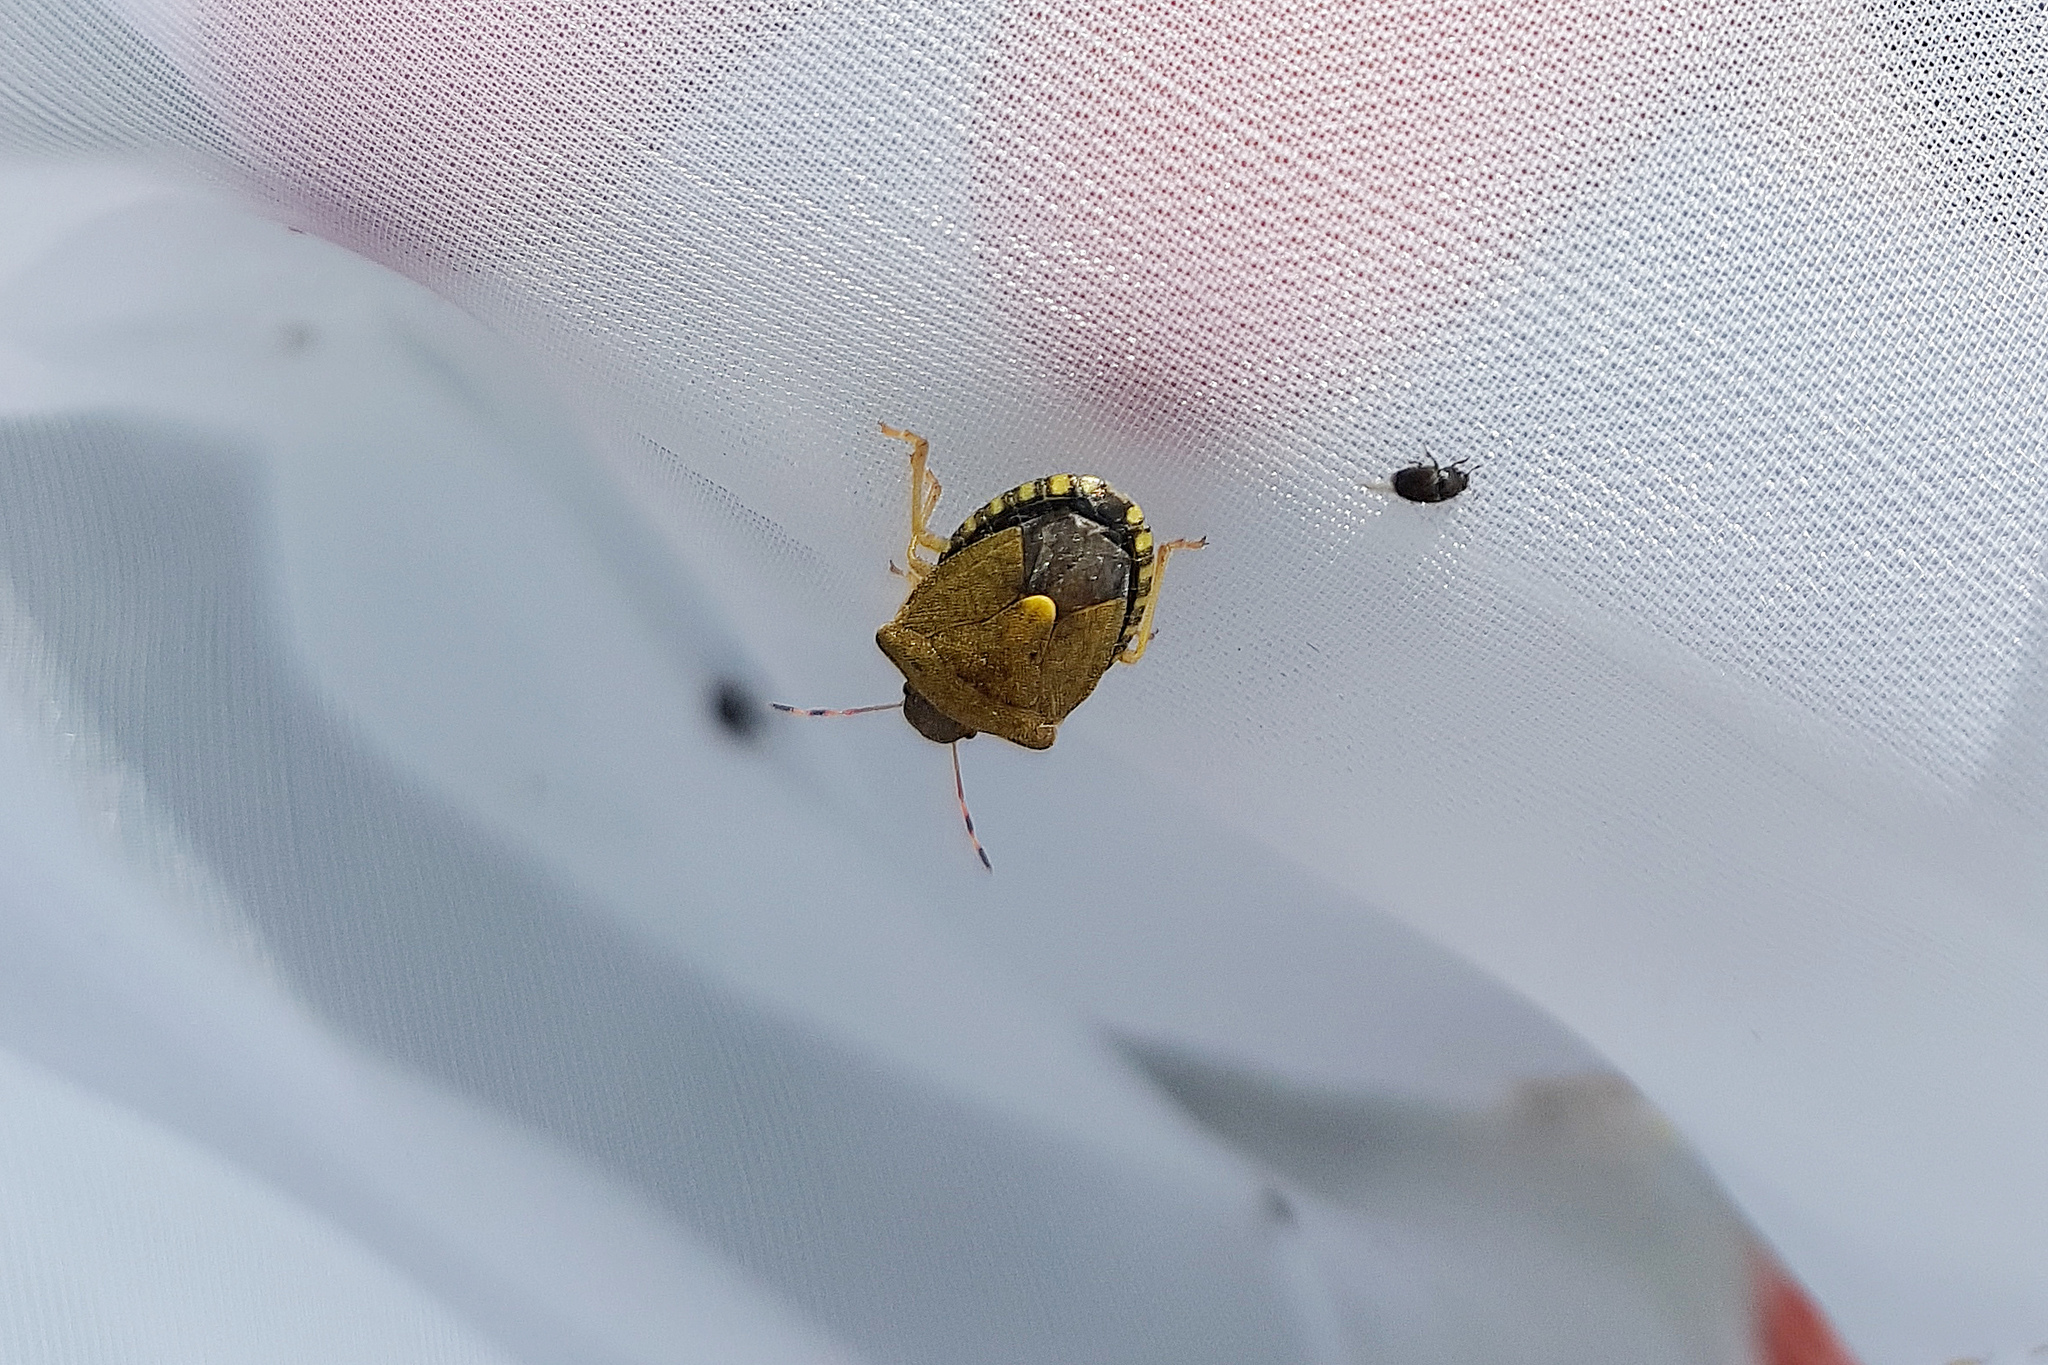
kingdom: Animalia
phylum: Arthropoda
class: Insecta
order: Hemiptera
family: Pentatomidae
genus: Holcostethus
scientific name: Holcostethus strictus
